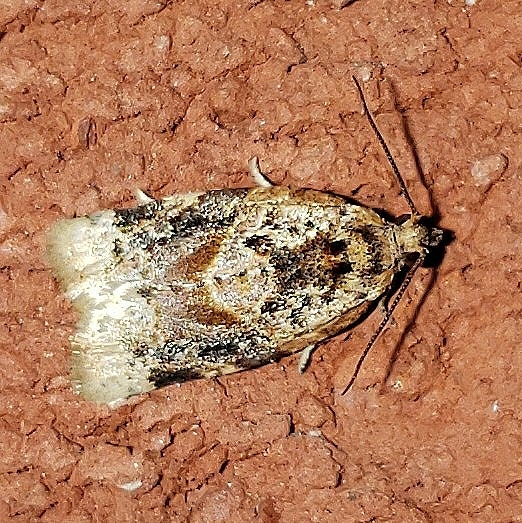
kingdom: Animalia
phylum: Arthropoda
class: Insecta
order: Lepidoptera
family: Tortricidae
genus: Argyrotaenia
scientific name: Argyrotaenia velutinana
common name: Red-banded leafroller moth
